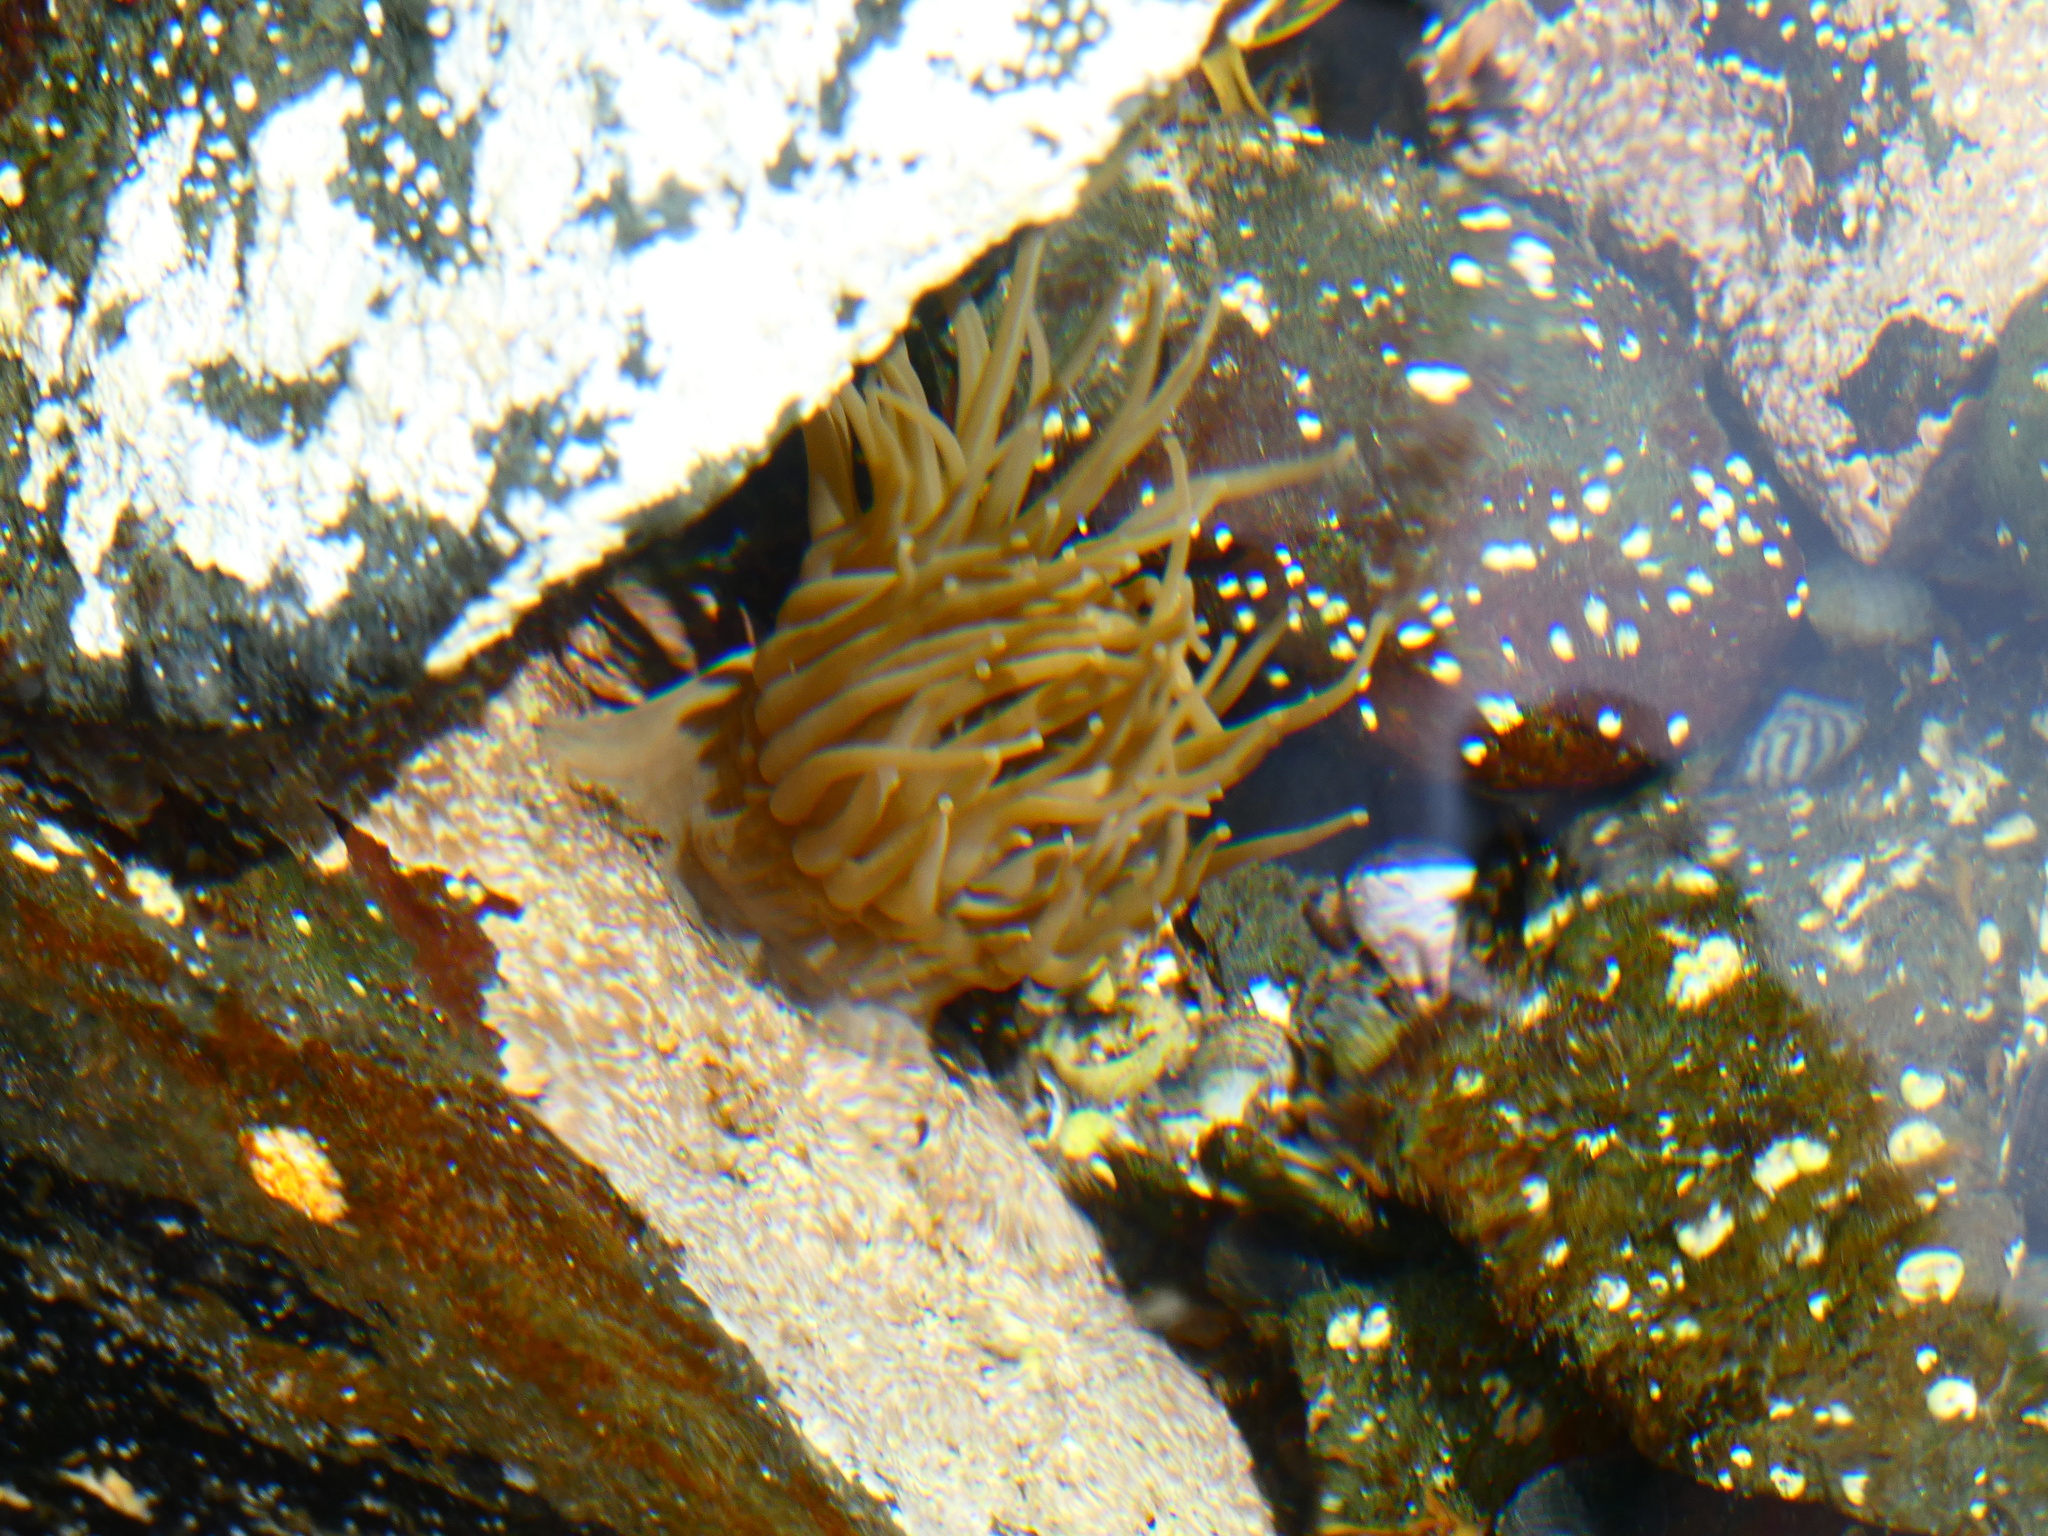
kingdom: Animalia
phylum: Cnidaria
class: Anthozoa
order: Actiniaria
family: Actiniidae
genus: Anemonia
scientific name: Anemonia viridis
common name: Snakelocks anemone
